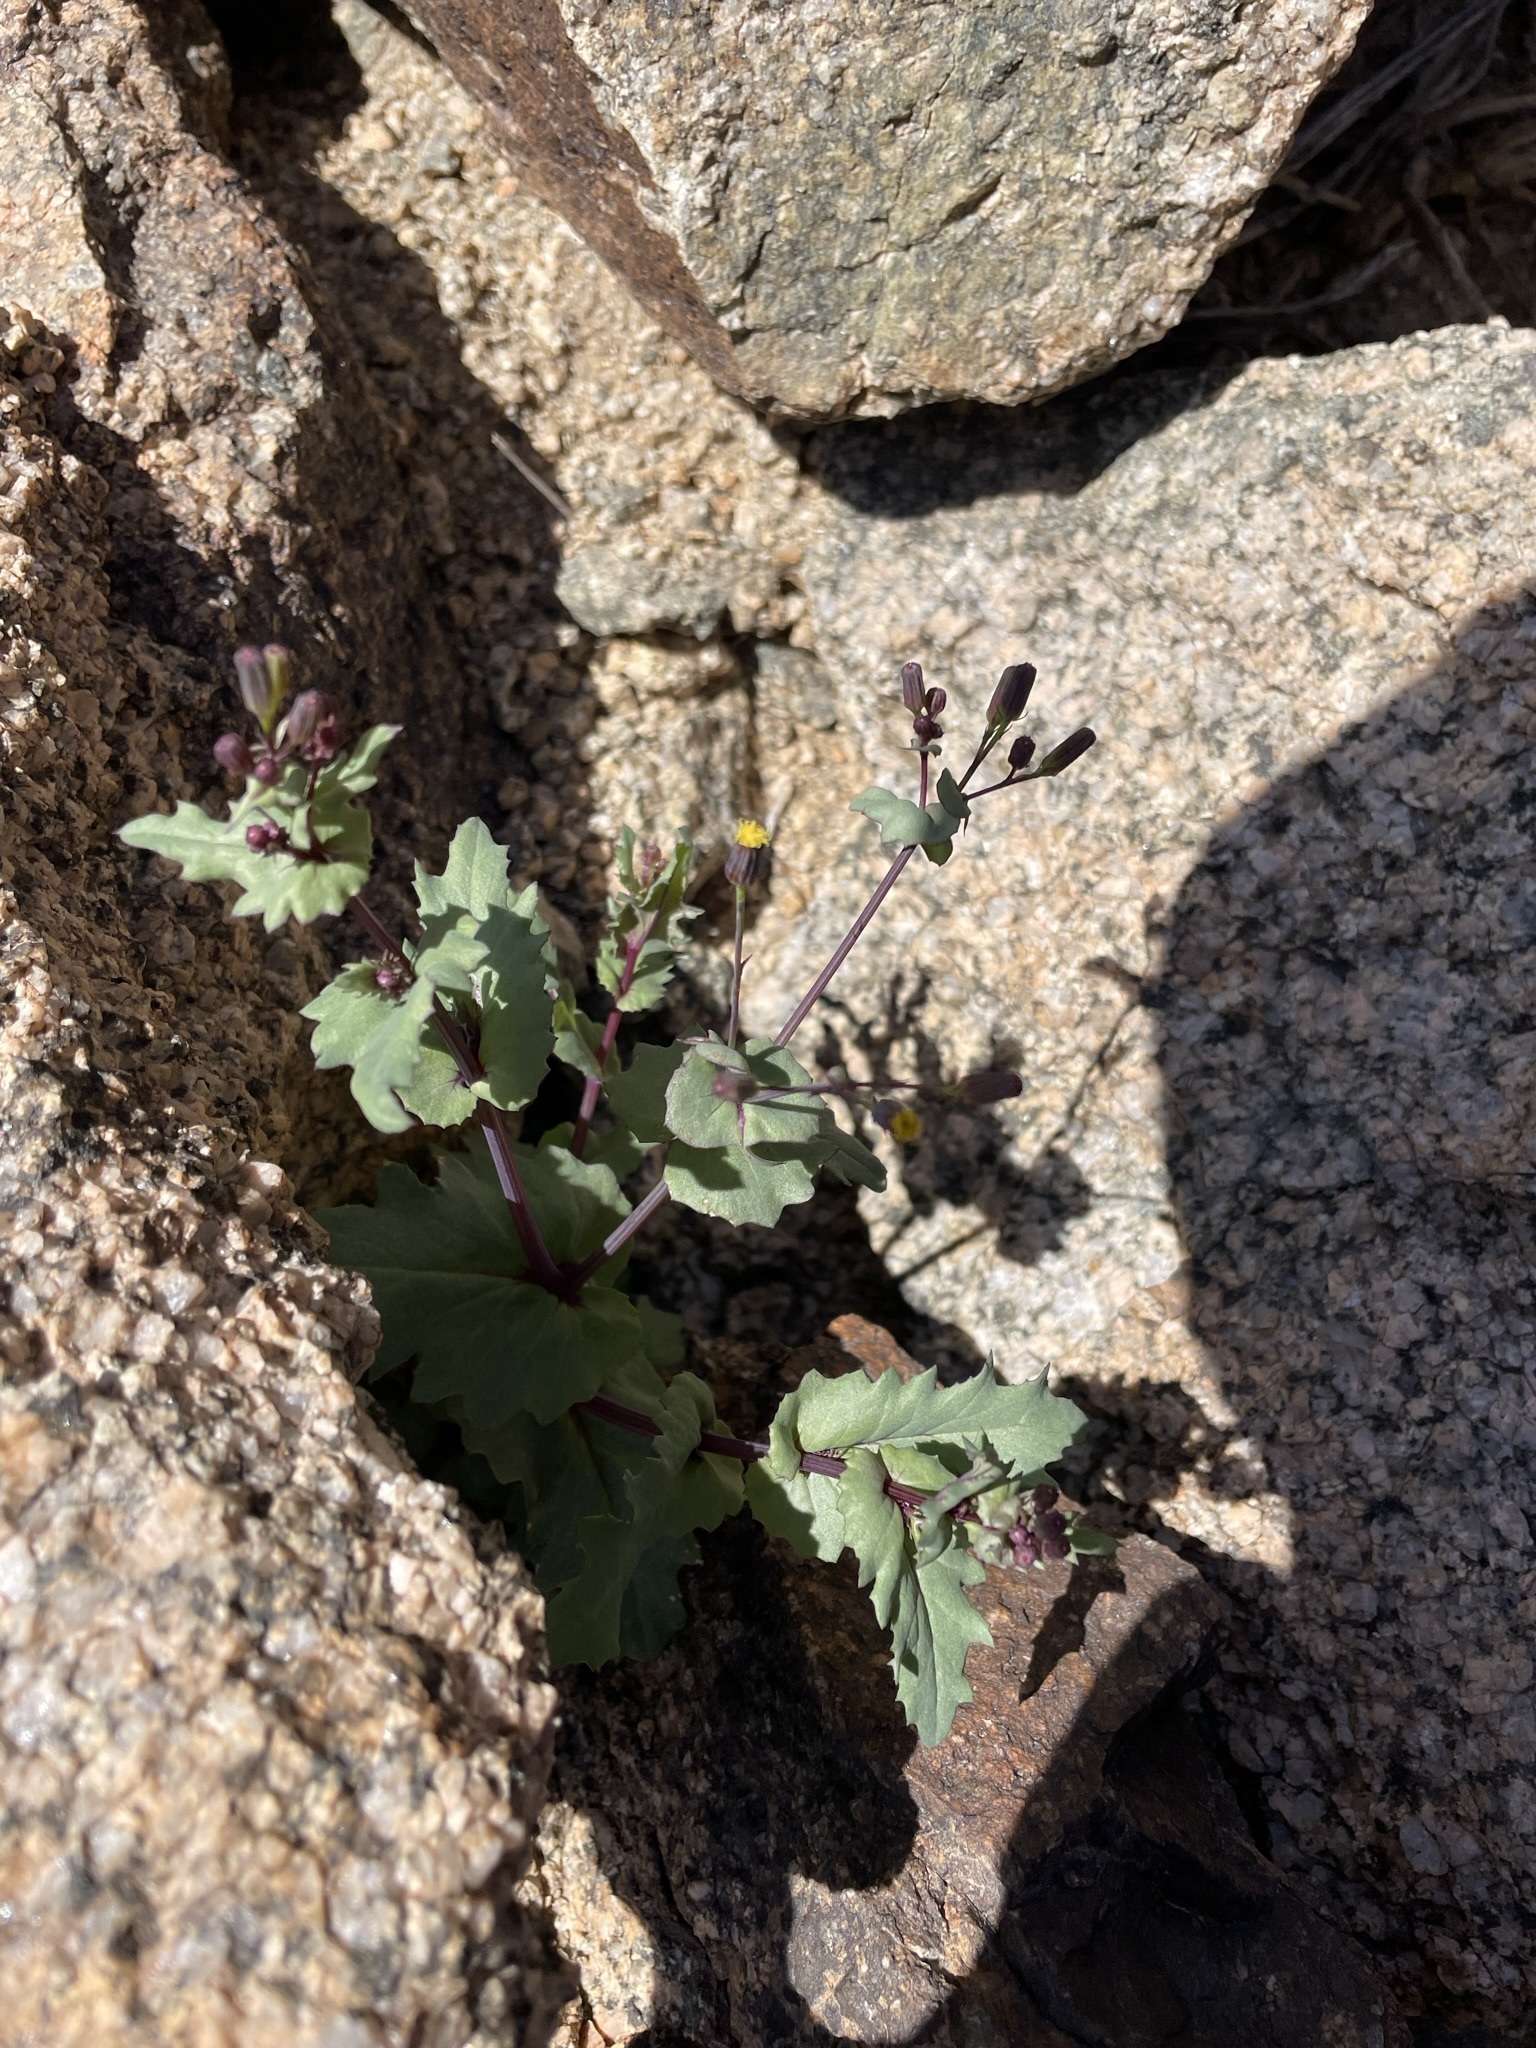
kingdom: Plantae
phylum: Tracheophyta
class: Magnoliopsida
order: Asterales
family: Asteraceae
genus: Senecio
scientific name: Senecio mohavensis
